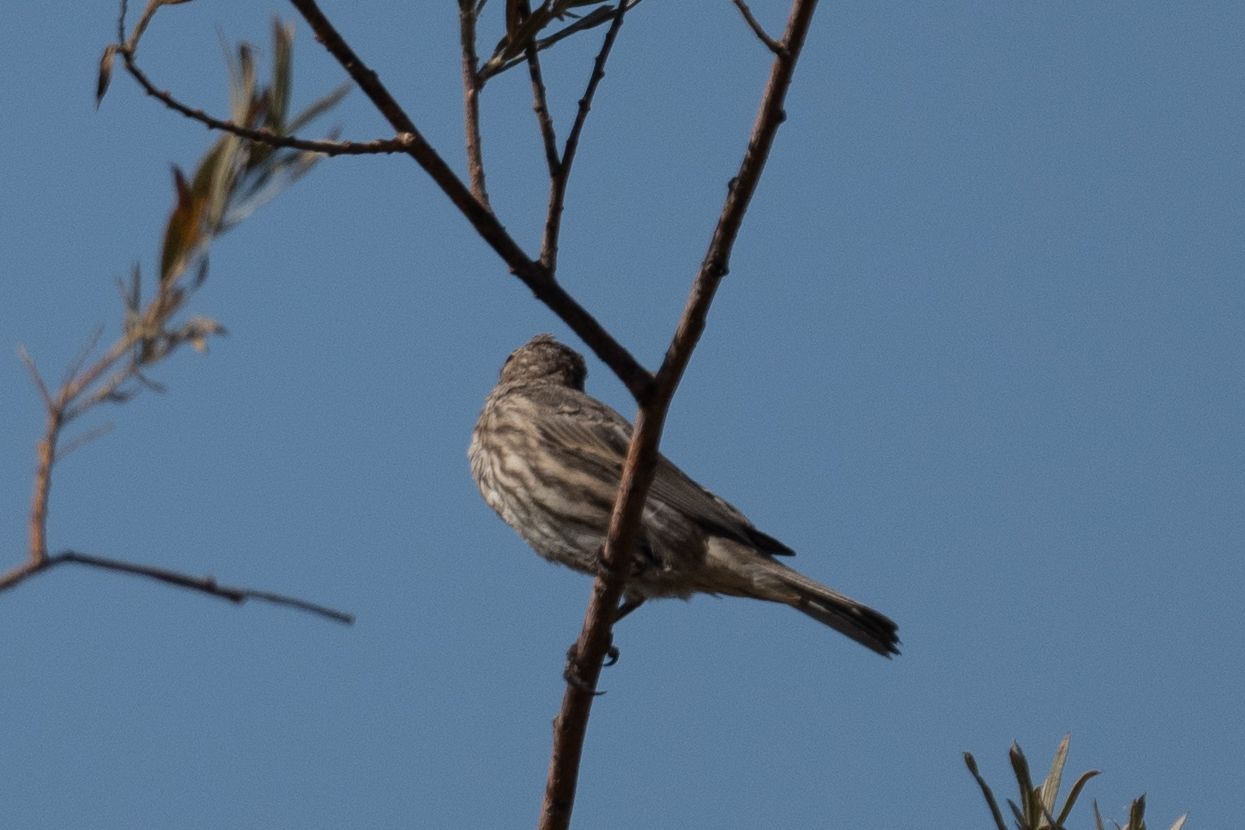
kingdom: Animalia
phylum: Chordata
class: Aves
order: Passeriformes
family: Fringillidae
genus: Haemorhous
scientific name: Haemorhous mexicanus
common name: House finch
